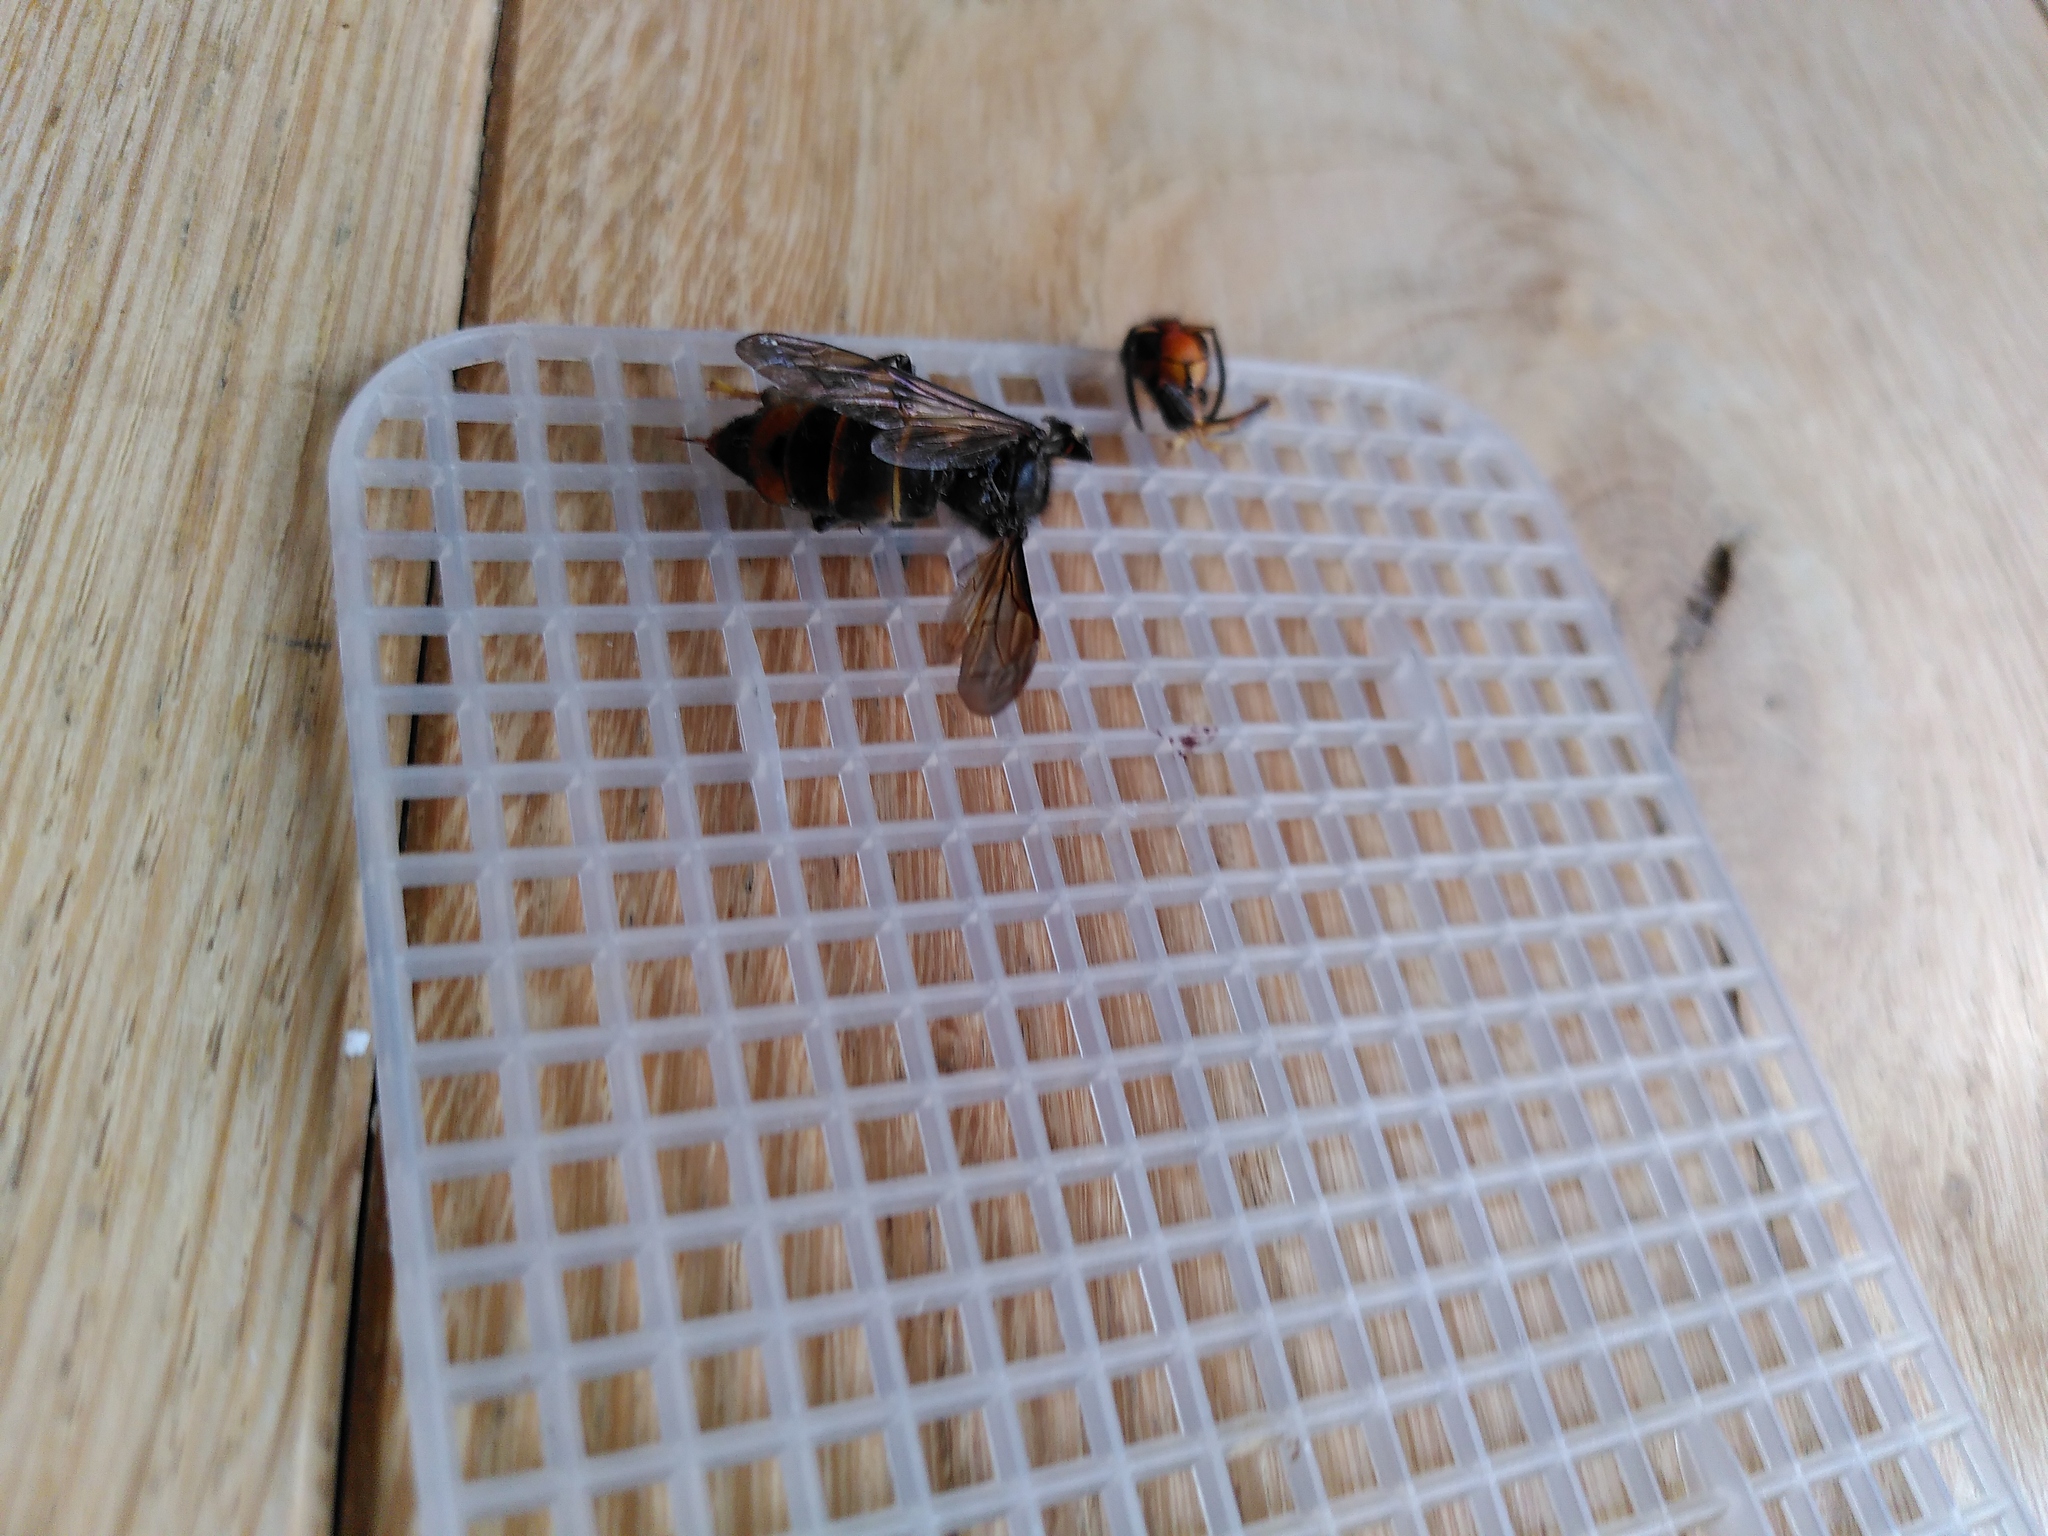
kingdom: Animalia
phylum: Arthropoda
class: Insecta
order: Hymenoptera
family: Vespidae
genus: Vespa
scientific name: Vespa velutina
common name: Asian hornet
